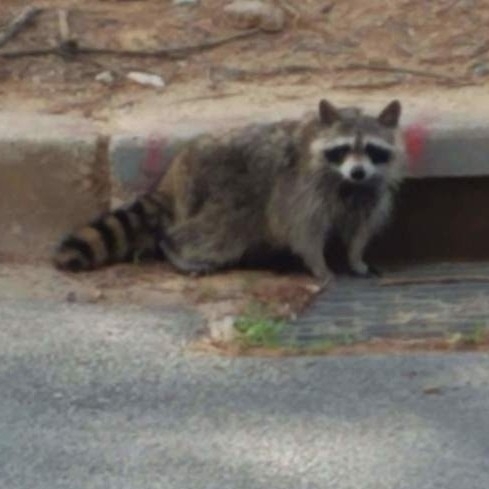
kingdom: Animalia
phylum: Chordata
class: Mammalia
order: Carnivora
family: Procyonidae
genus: Procyon
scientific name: Procyon lotor
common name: Raccoon
